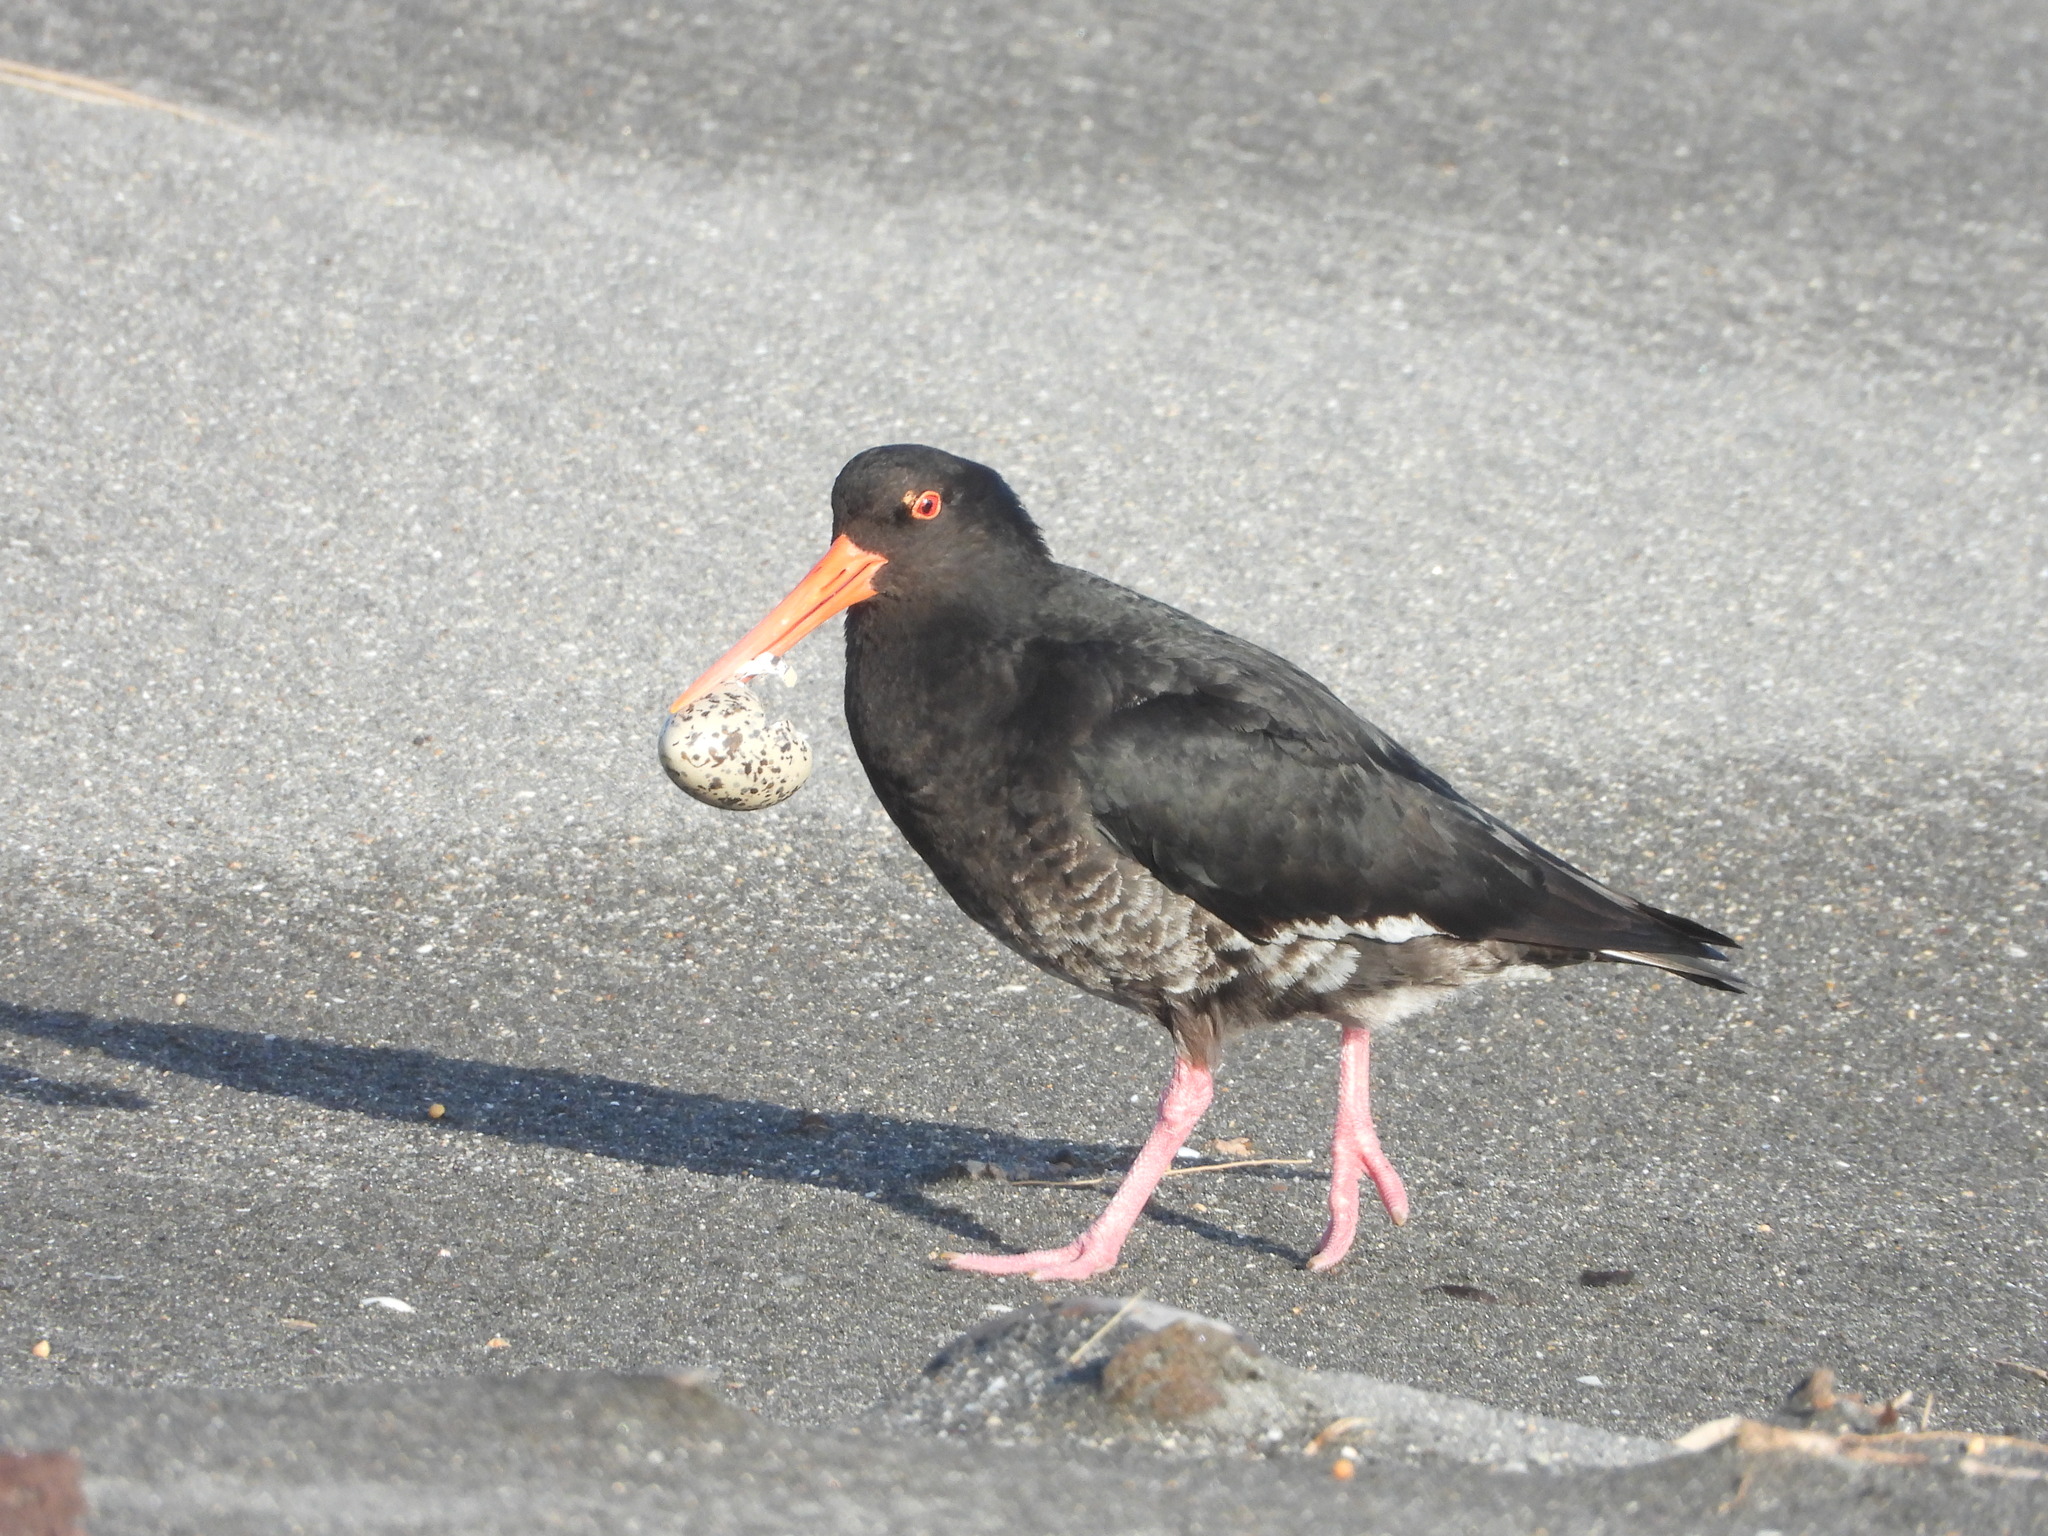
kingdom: Animalia
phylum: Chordata
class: Aves
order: Charadriiformes
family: Haematopodidae
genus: Haematopus
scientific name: Haematopus unicolor
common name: Variable oystercatcher
